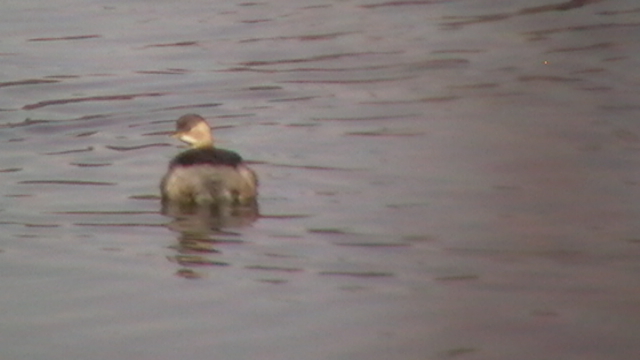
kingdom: Animalia
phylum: Chordata
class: Aves
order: Podicipediformes
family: Podicipedidae
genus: Tachybaptus
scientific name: Tachybaptus ruficollis
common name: Little grebe
